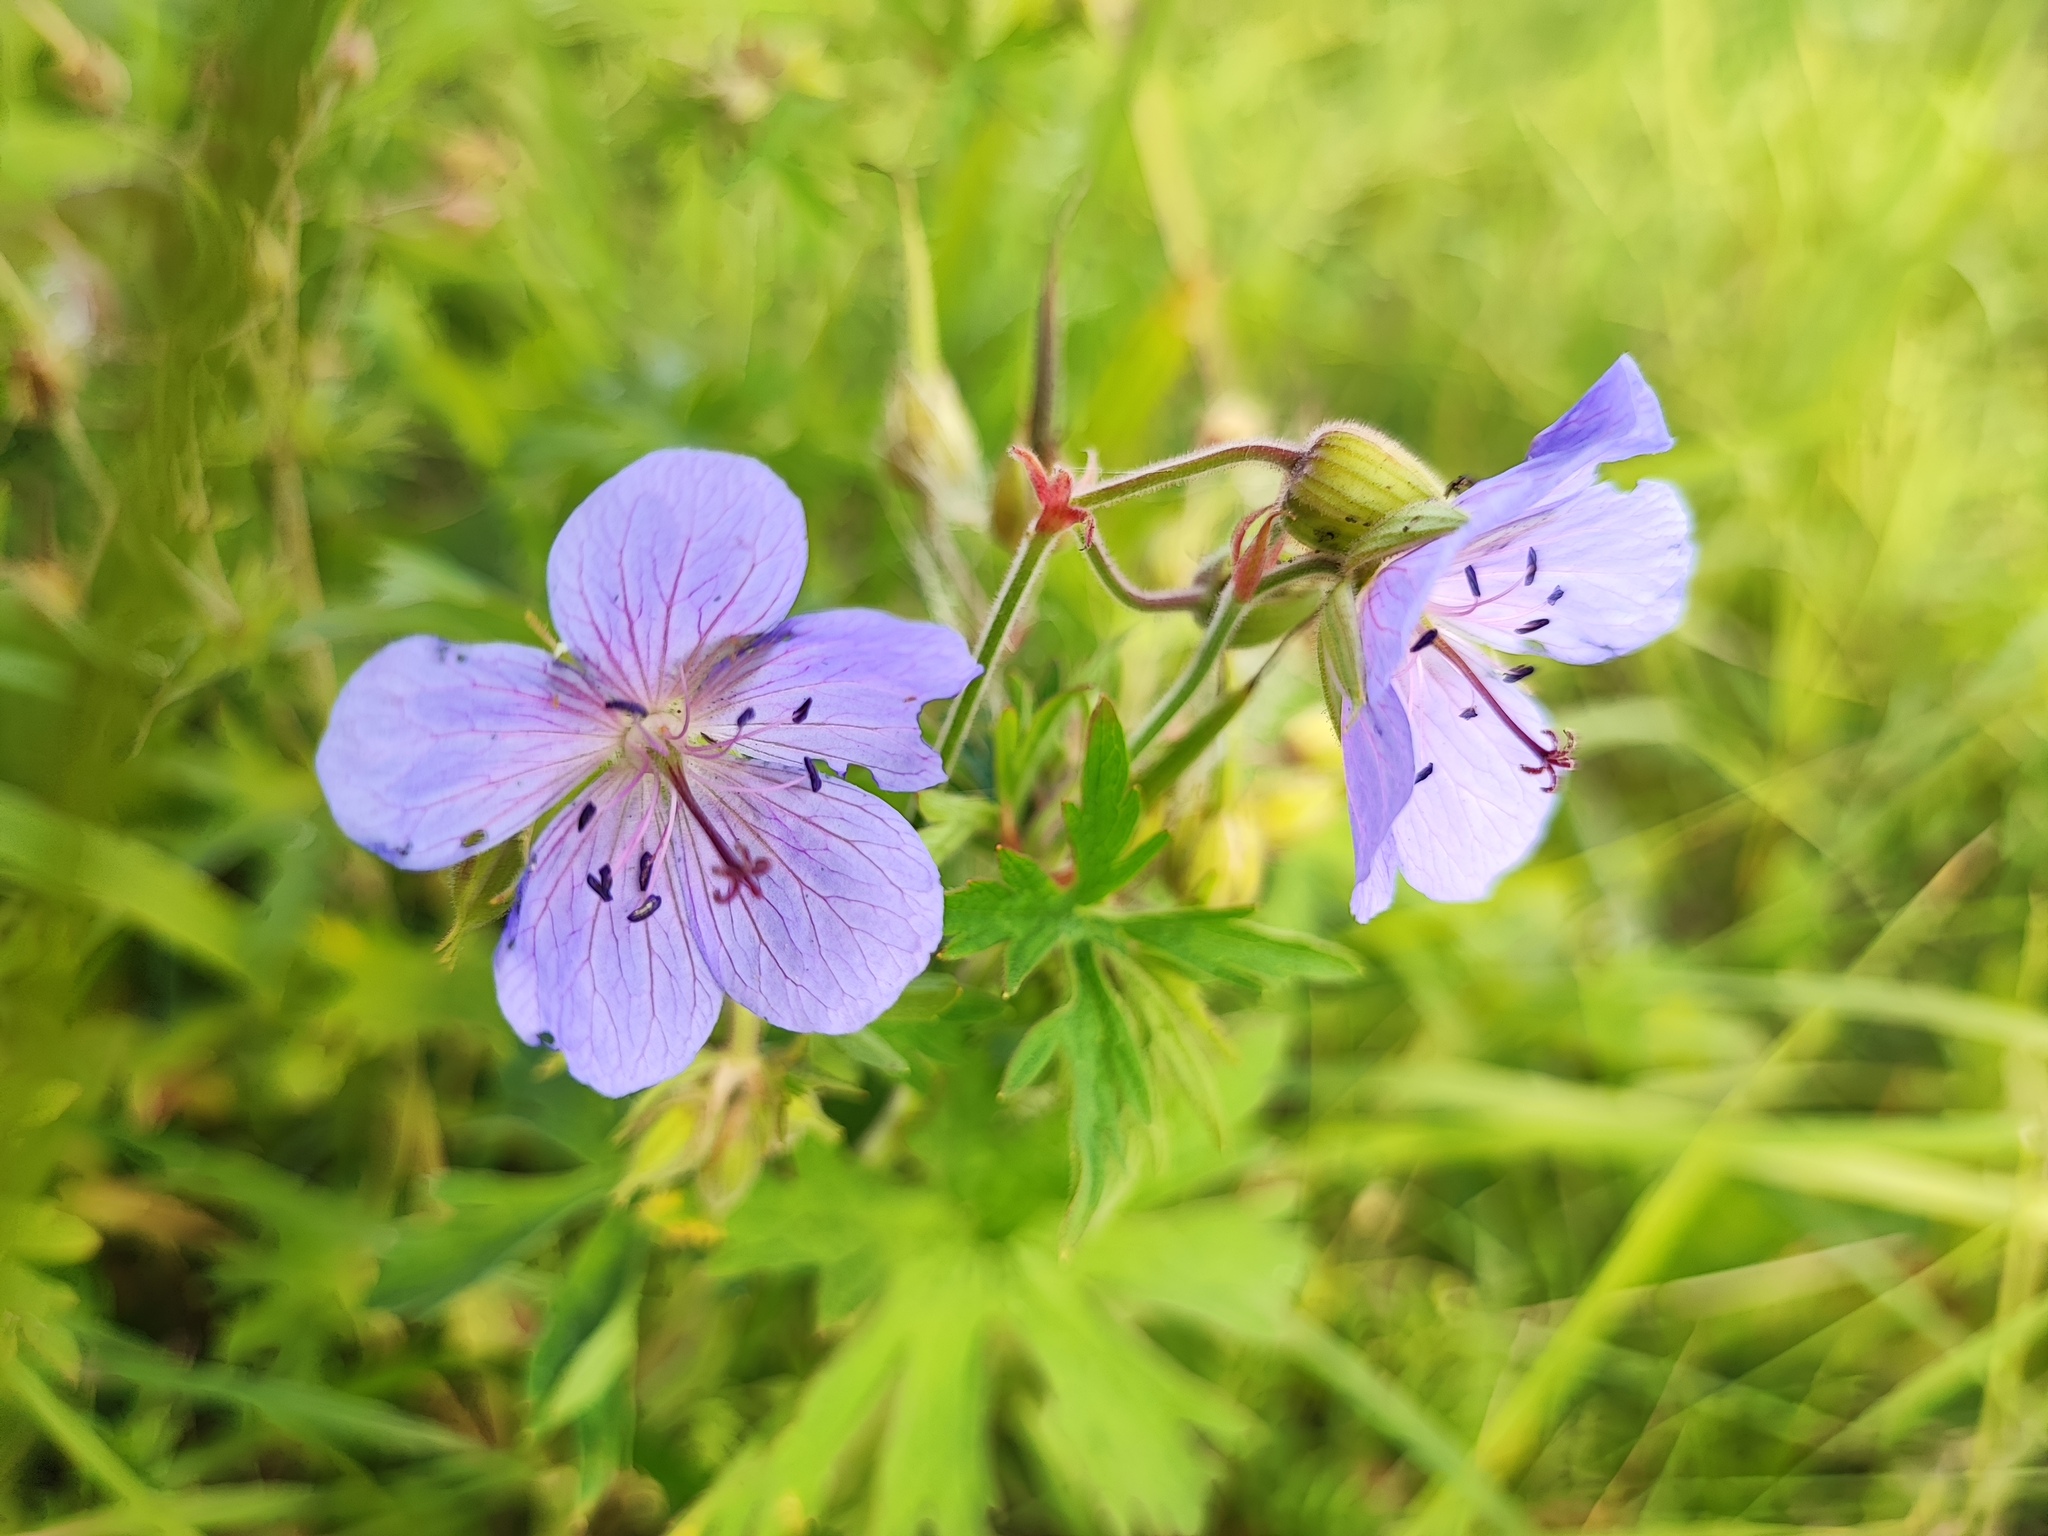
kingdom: Plantae
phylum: Tracheophyta
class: Magnoliopsida
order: Geraniales
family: Geraniaceae
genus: Geranium
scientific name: Geranium pratense
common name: Meadow crane's-bill
